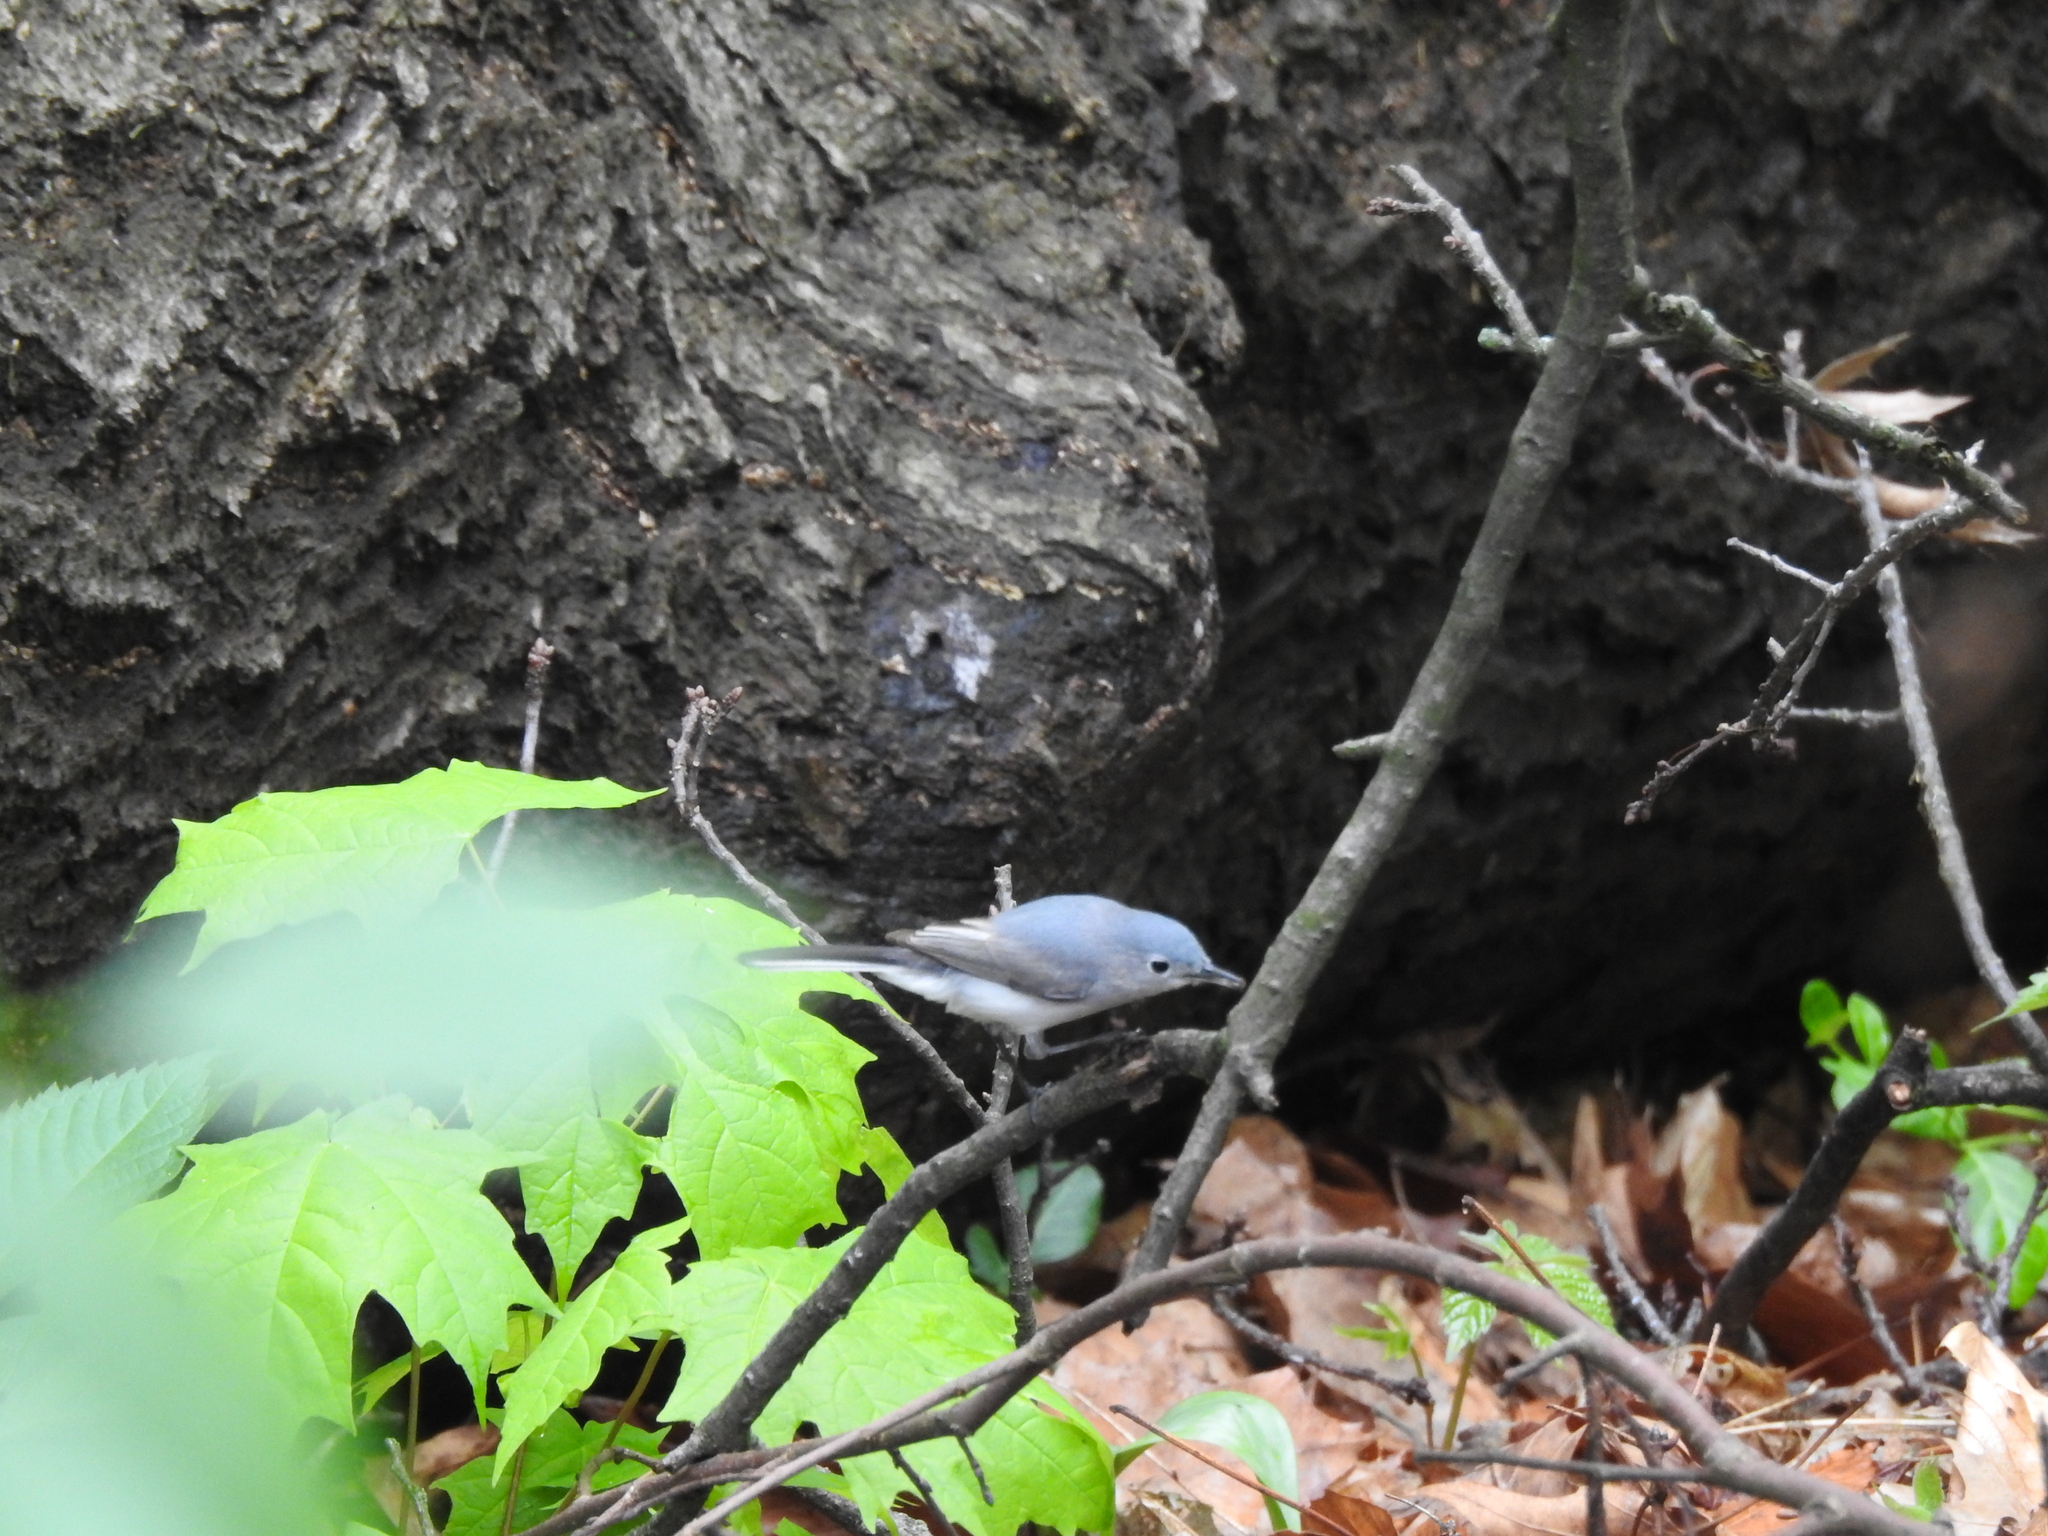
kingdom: Animalia
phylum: Chordata
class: Aves
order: Passeriformes
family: Polioptilidae
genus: Polioptila
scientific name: Polioptila caerulea
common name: Blue-gray gnatcatcher
